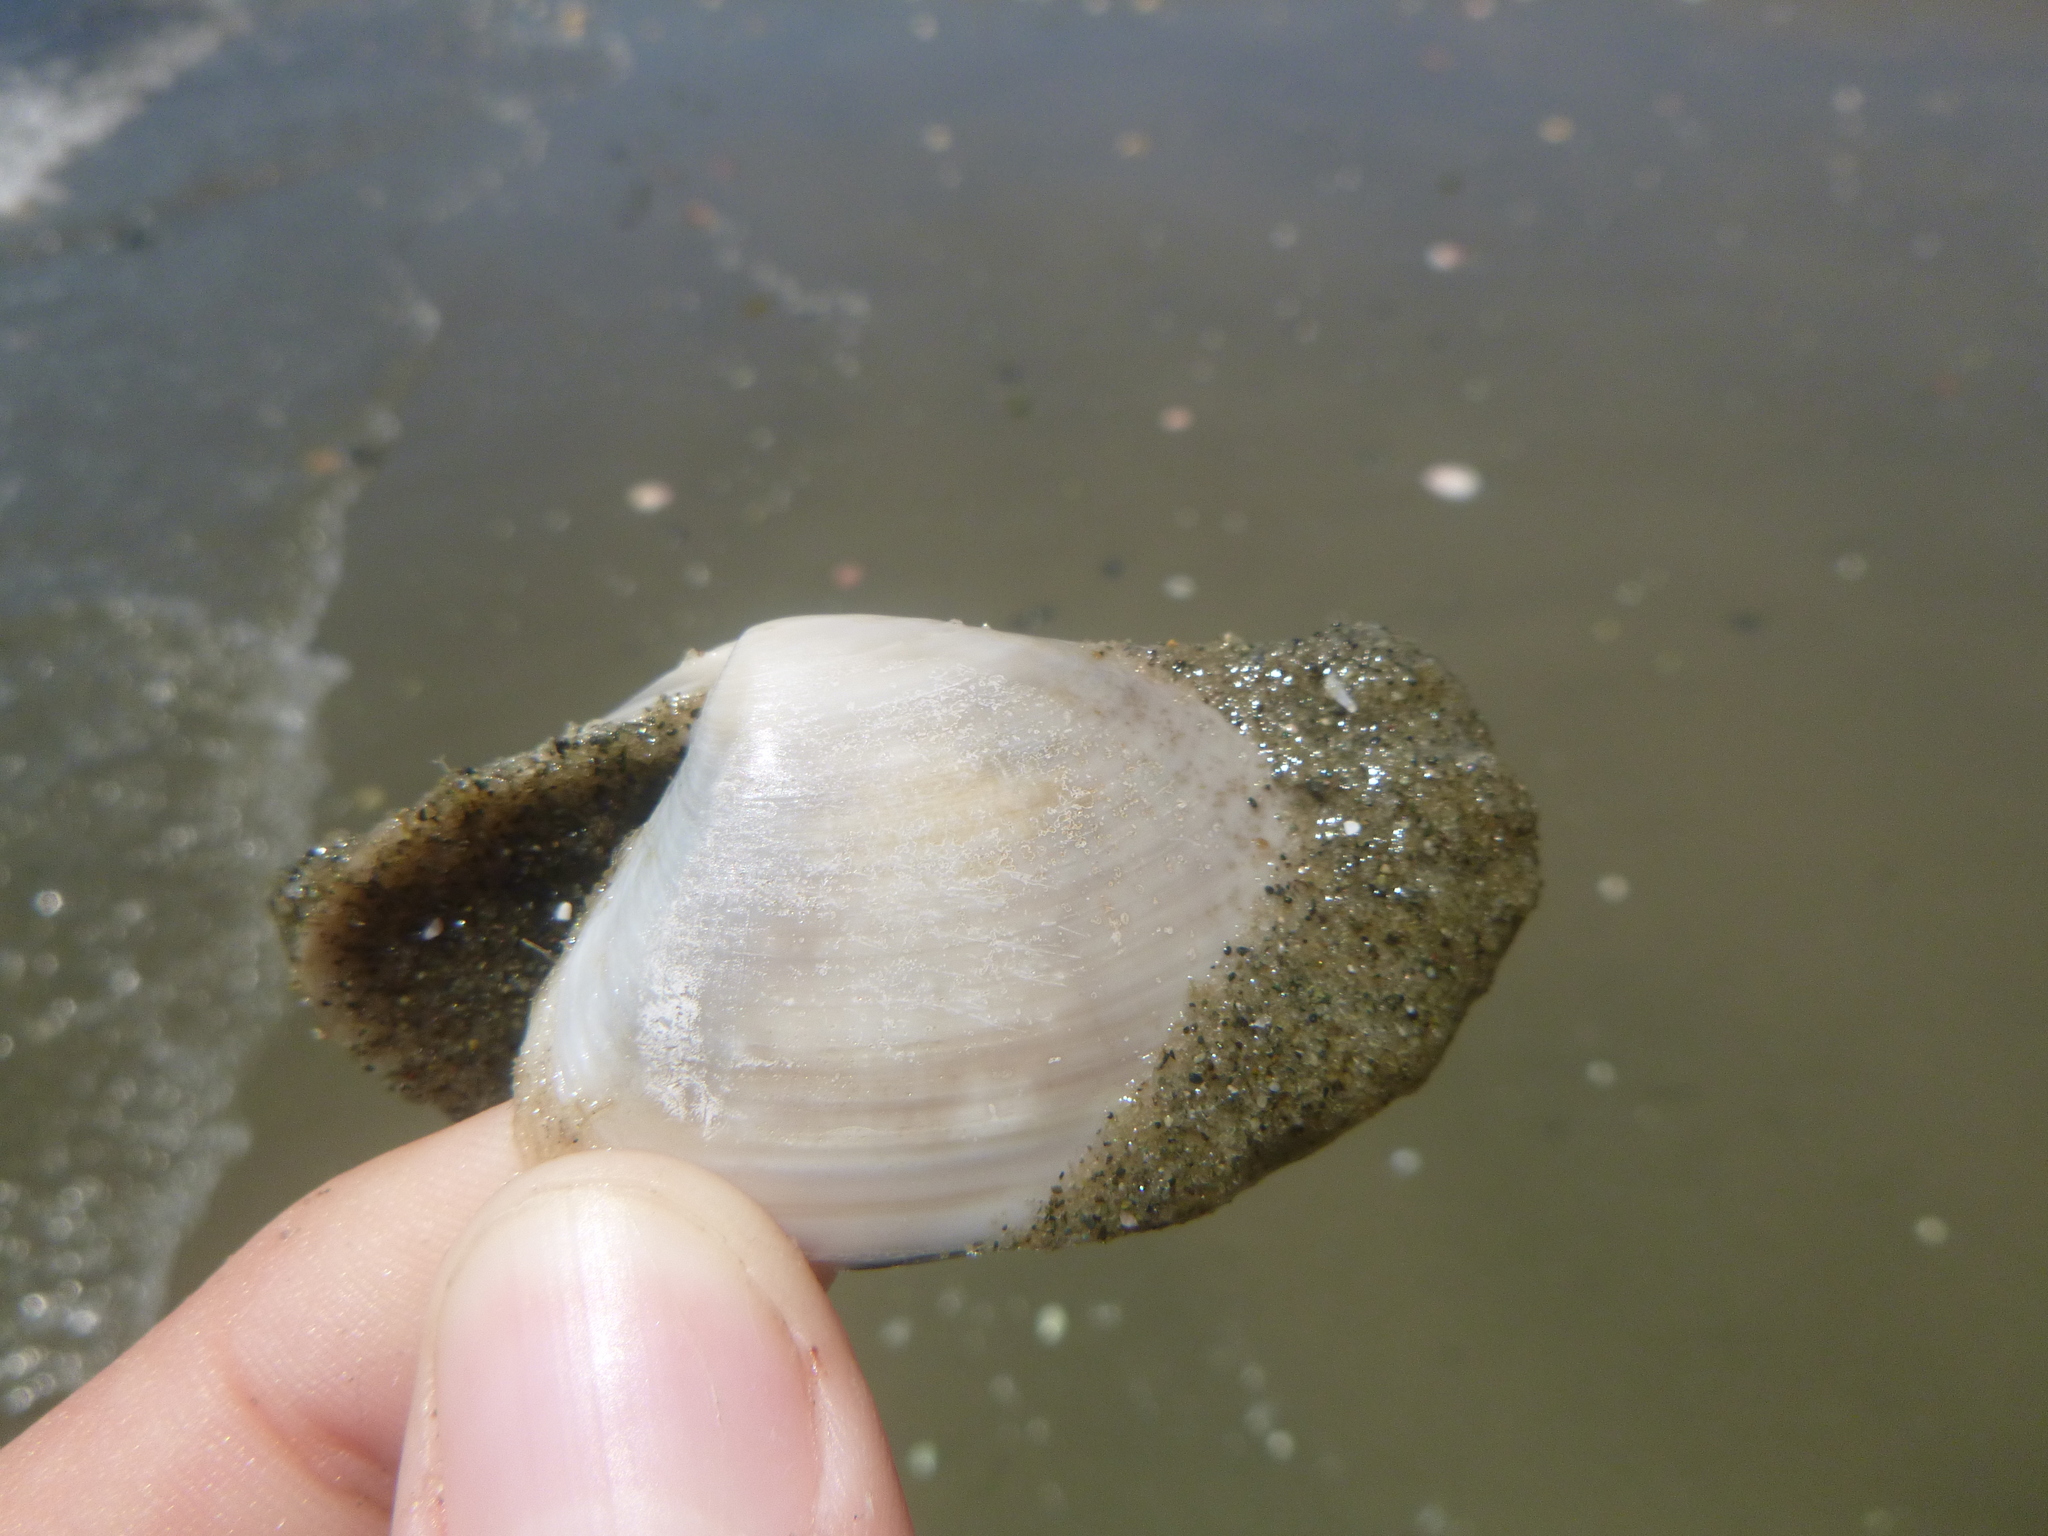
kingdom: Animalia
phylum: Mollusca
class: Bivalvia
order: Venerida
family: Mesodesmatidae
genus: Paphies
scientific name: Paphies subtriangulata
